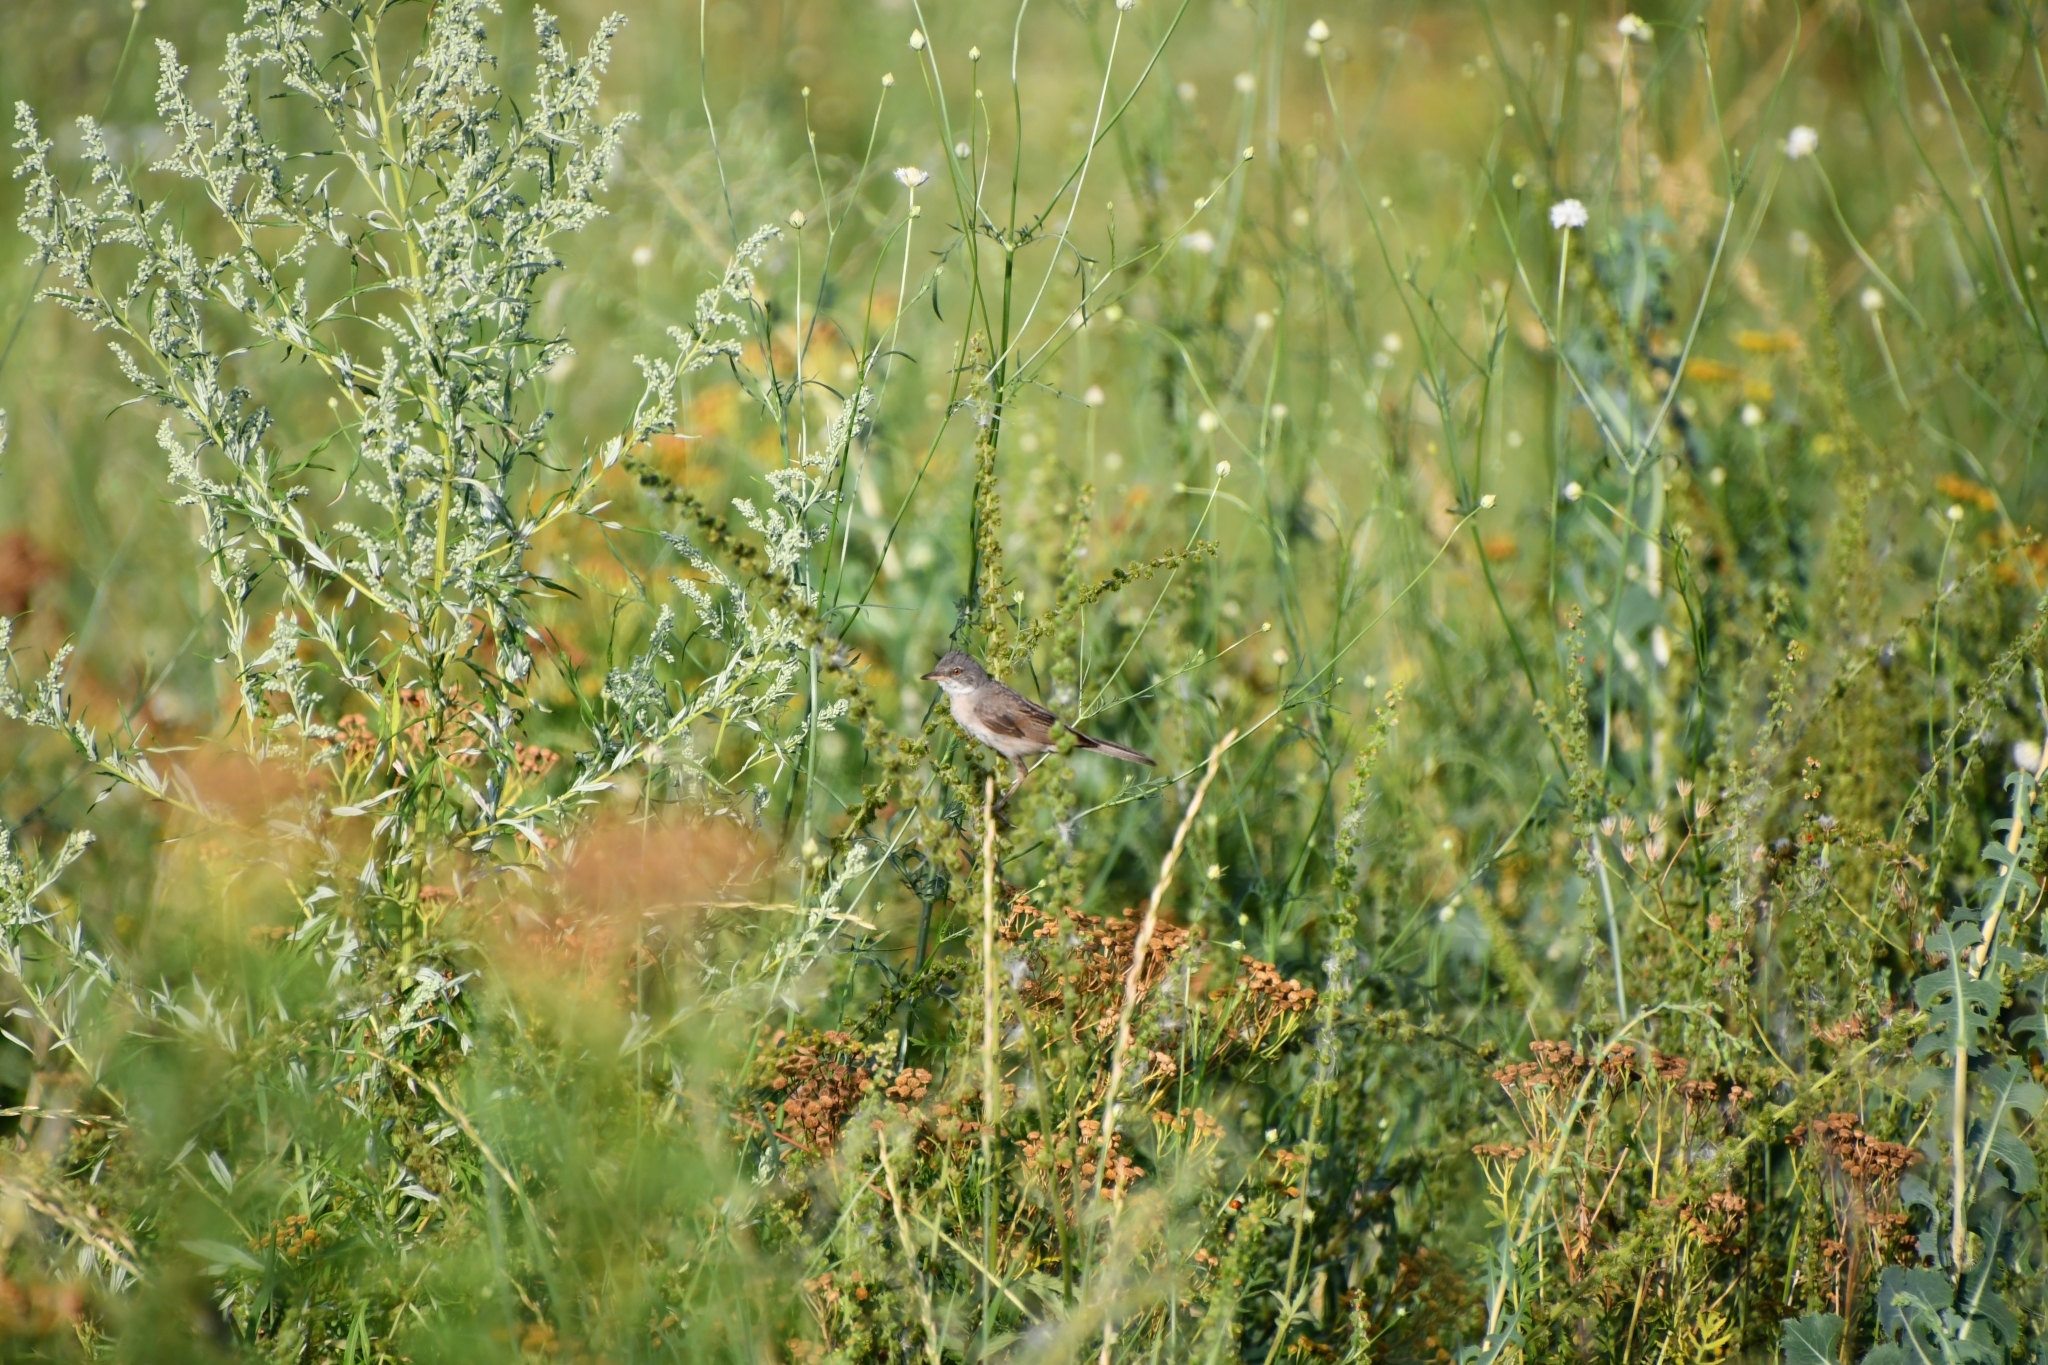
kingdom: Animalia
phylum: Chordata
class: Aves
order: Passeriformes
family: Sylviidae
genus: Sylvia
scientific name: Sylvia communis
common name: Common whitethroat
